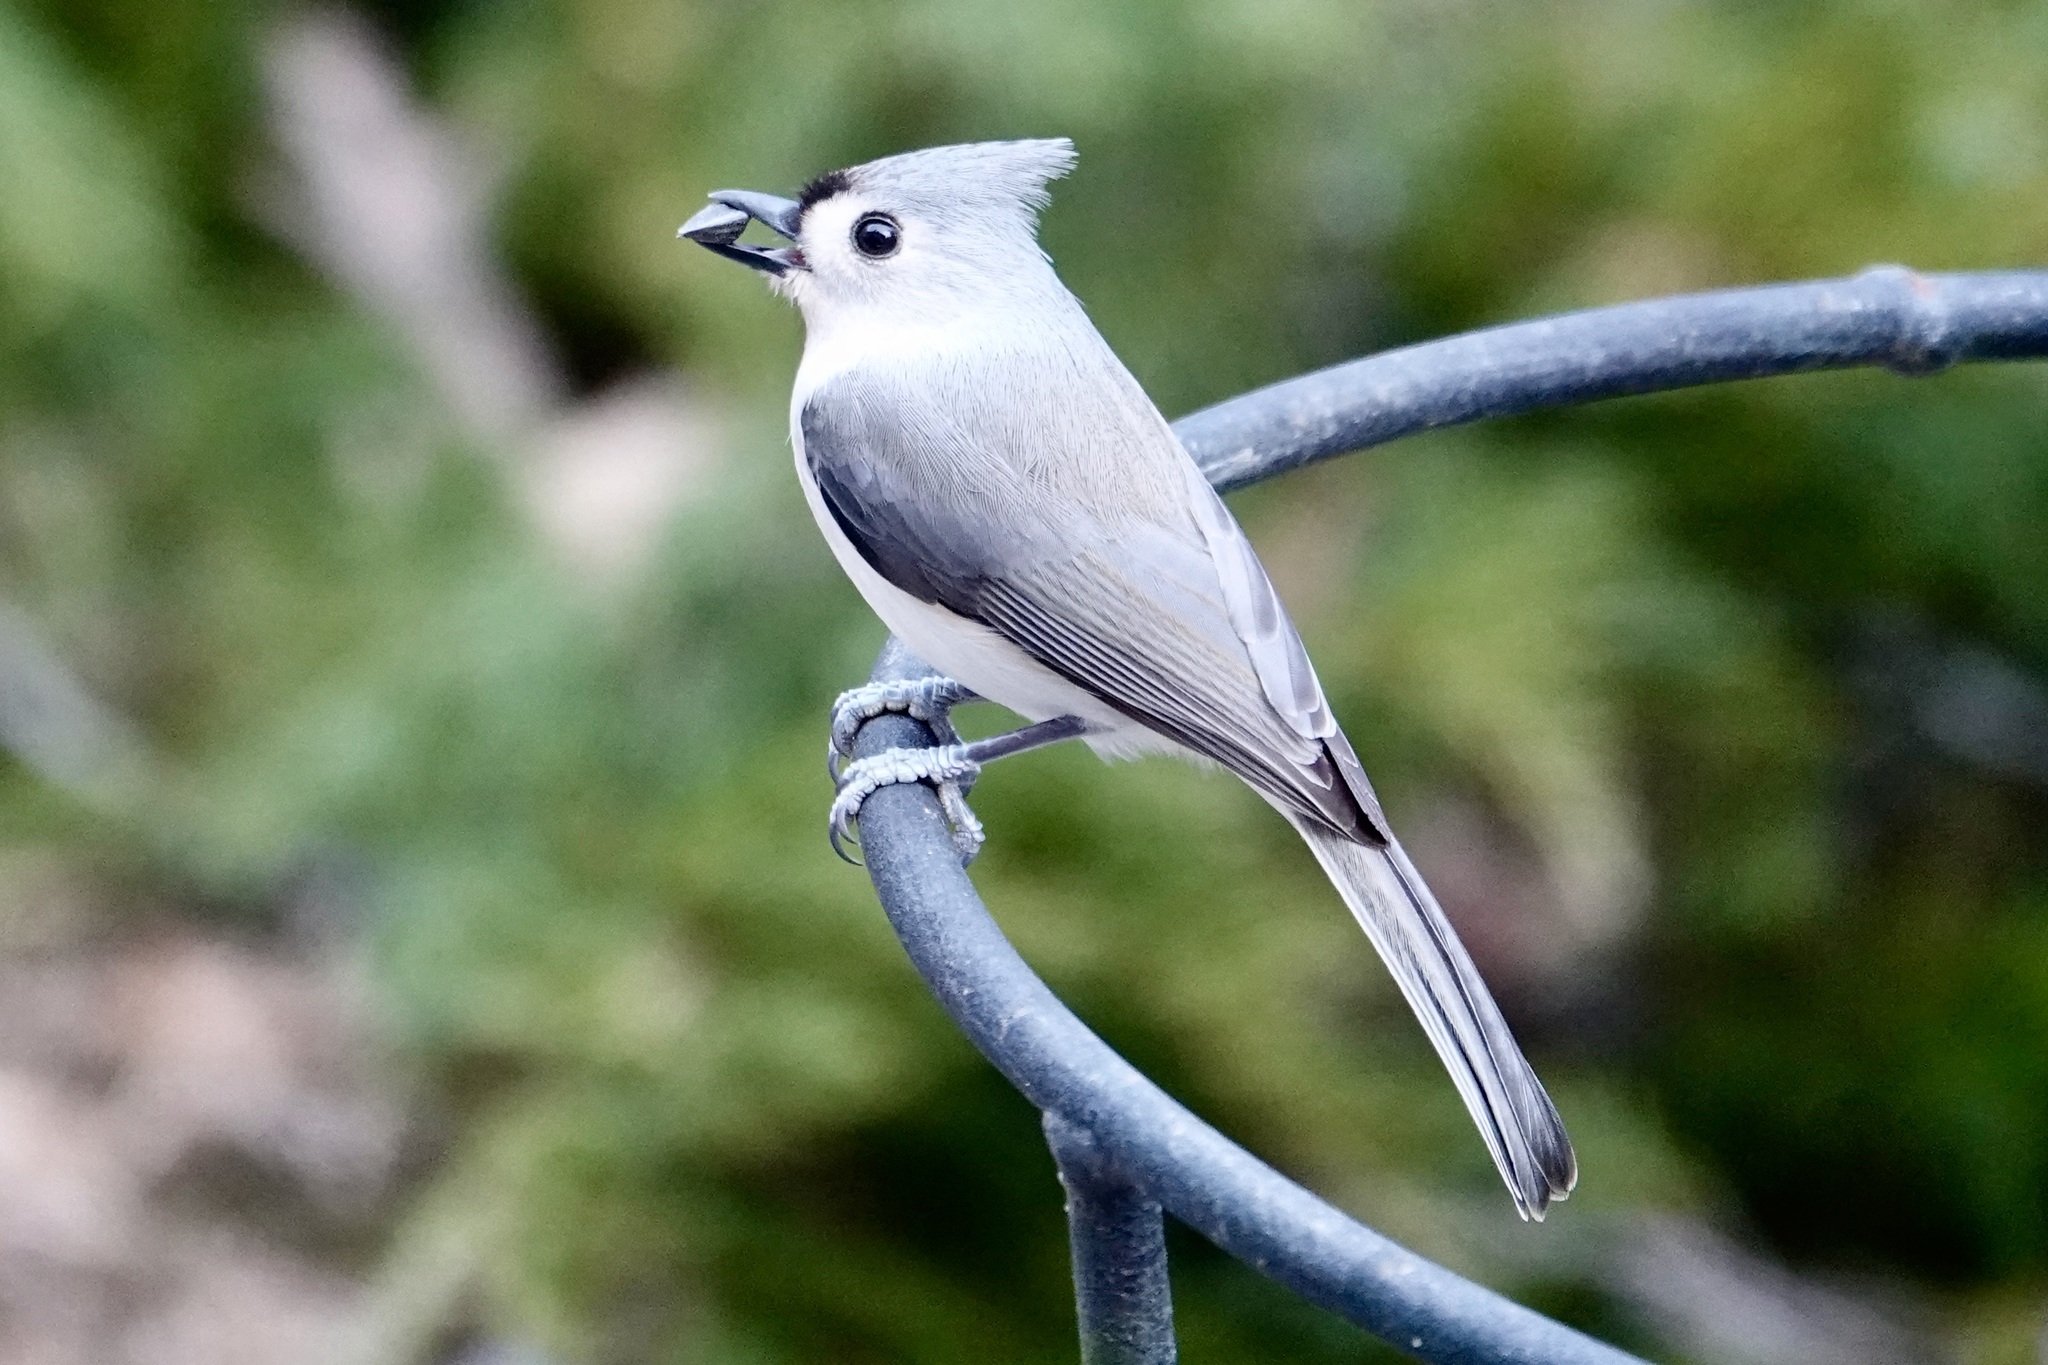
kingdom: Animalia
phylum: Chordata
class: Aves
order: Passeriformes
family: Paridae
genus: Baeolophus
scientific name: Baeolophus bicolor
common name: Tufted titmouse
